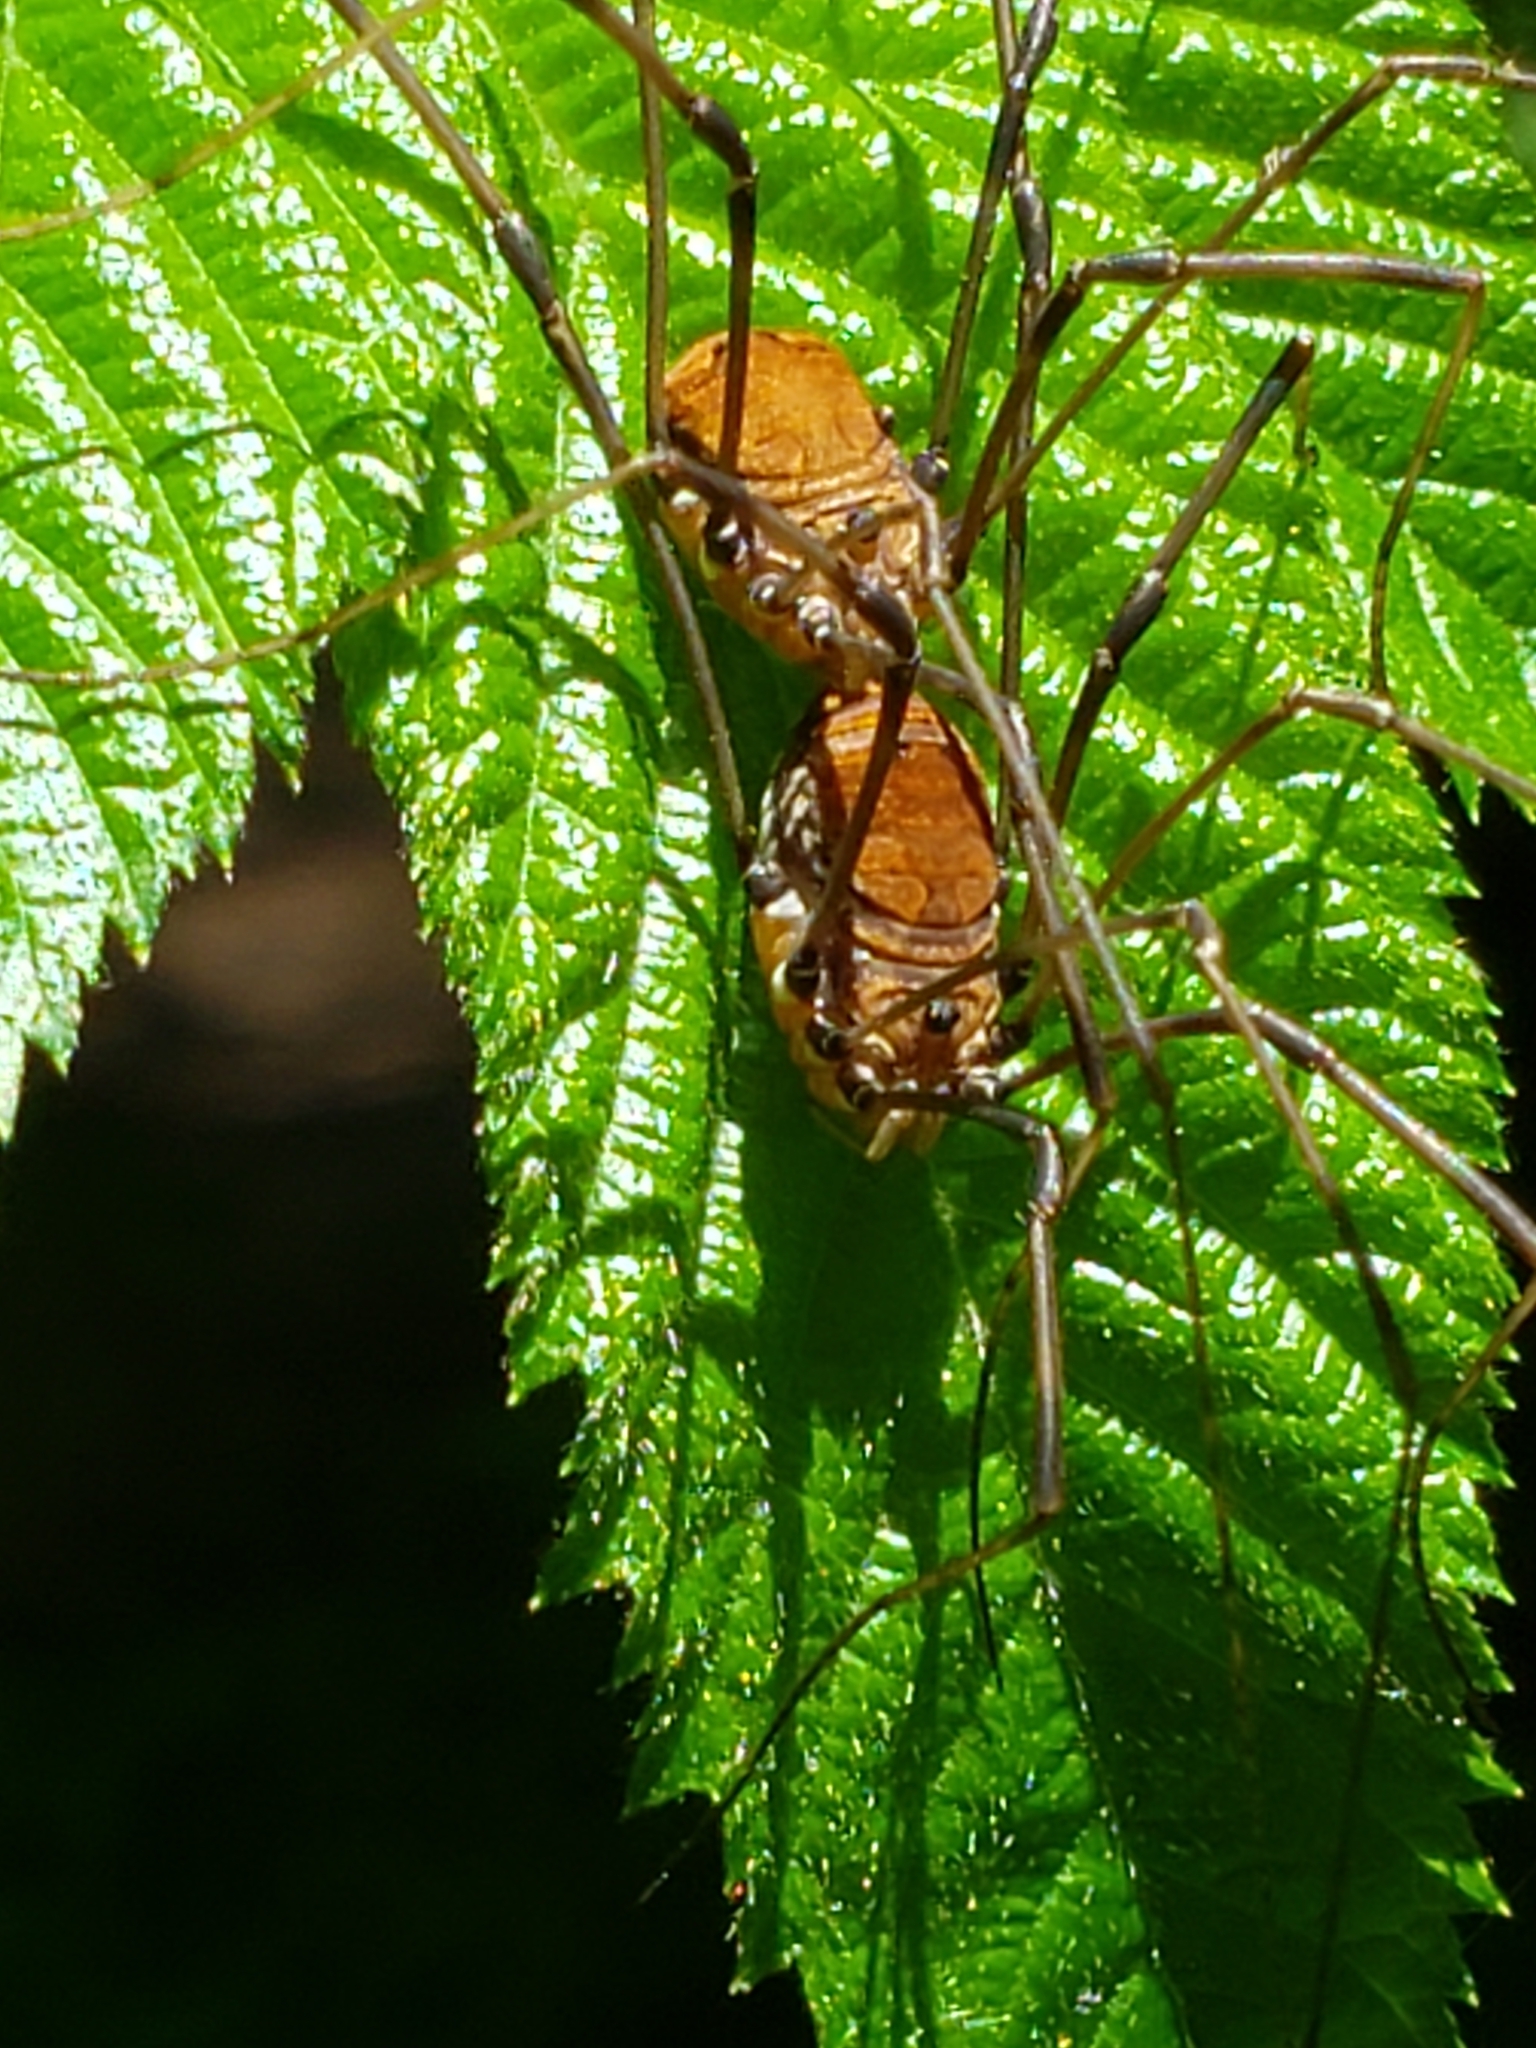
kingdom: Animalia
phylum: Arthropoda
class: Arachnida
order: Opiliones
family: Sclerosomatidae
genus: Leiobunum
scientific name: Leiobunum verrucosum
